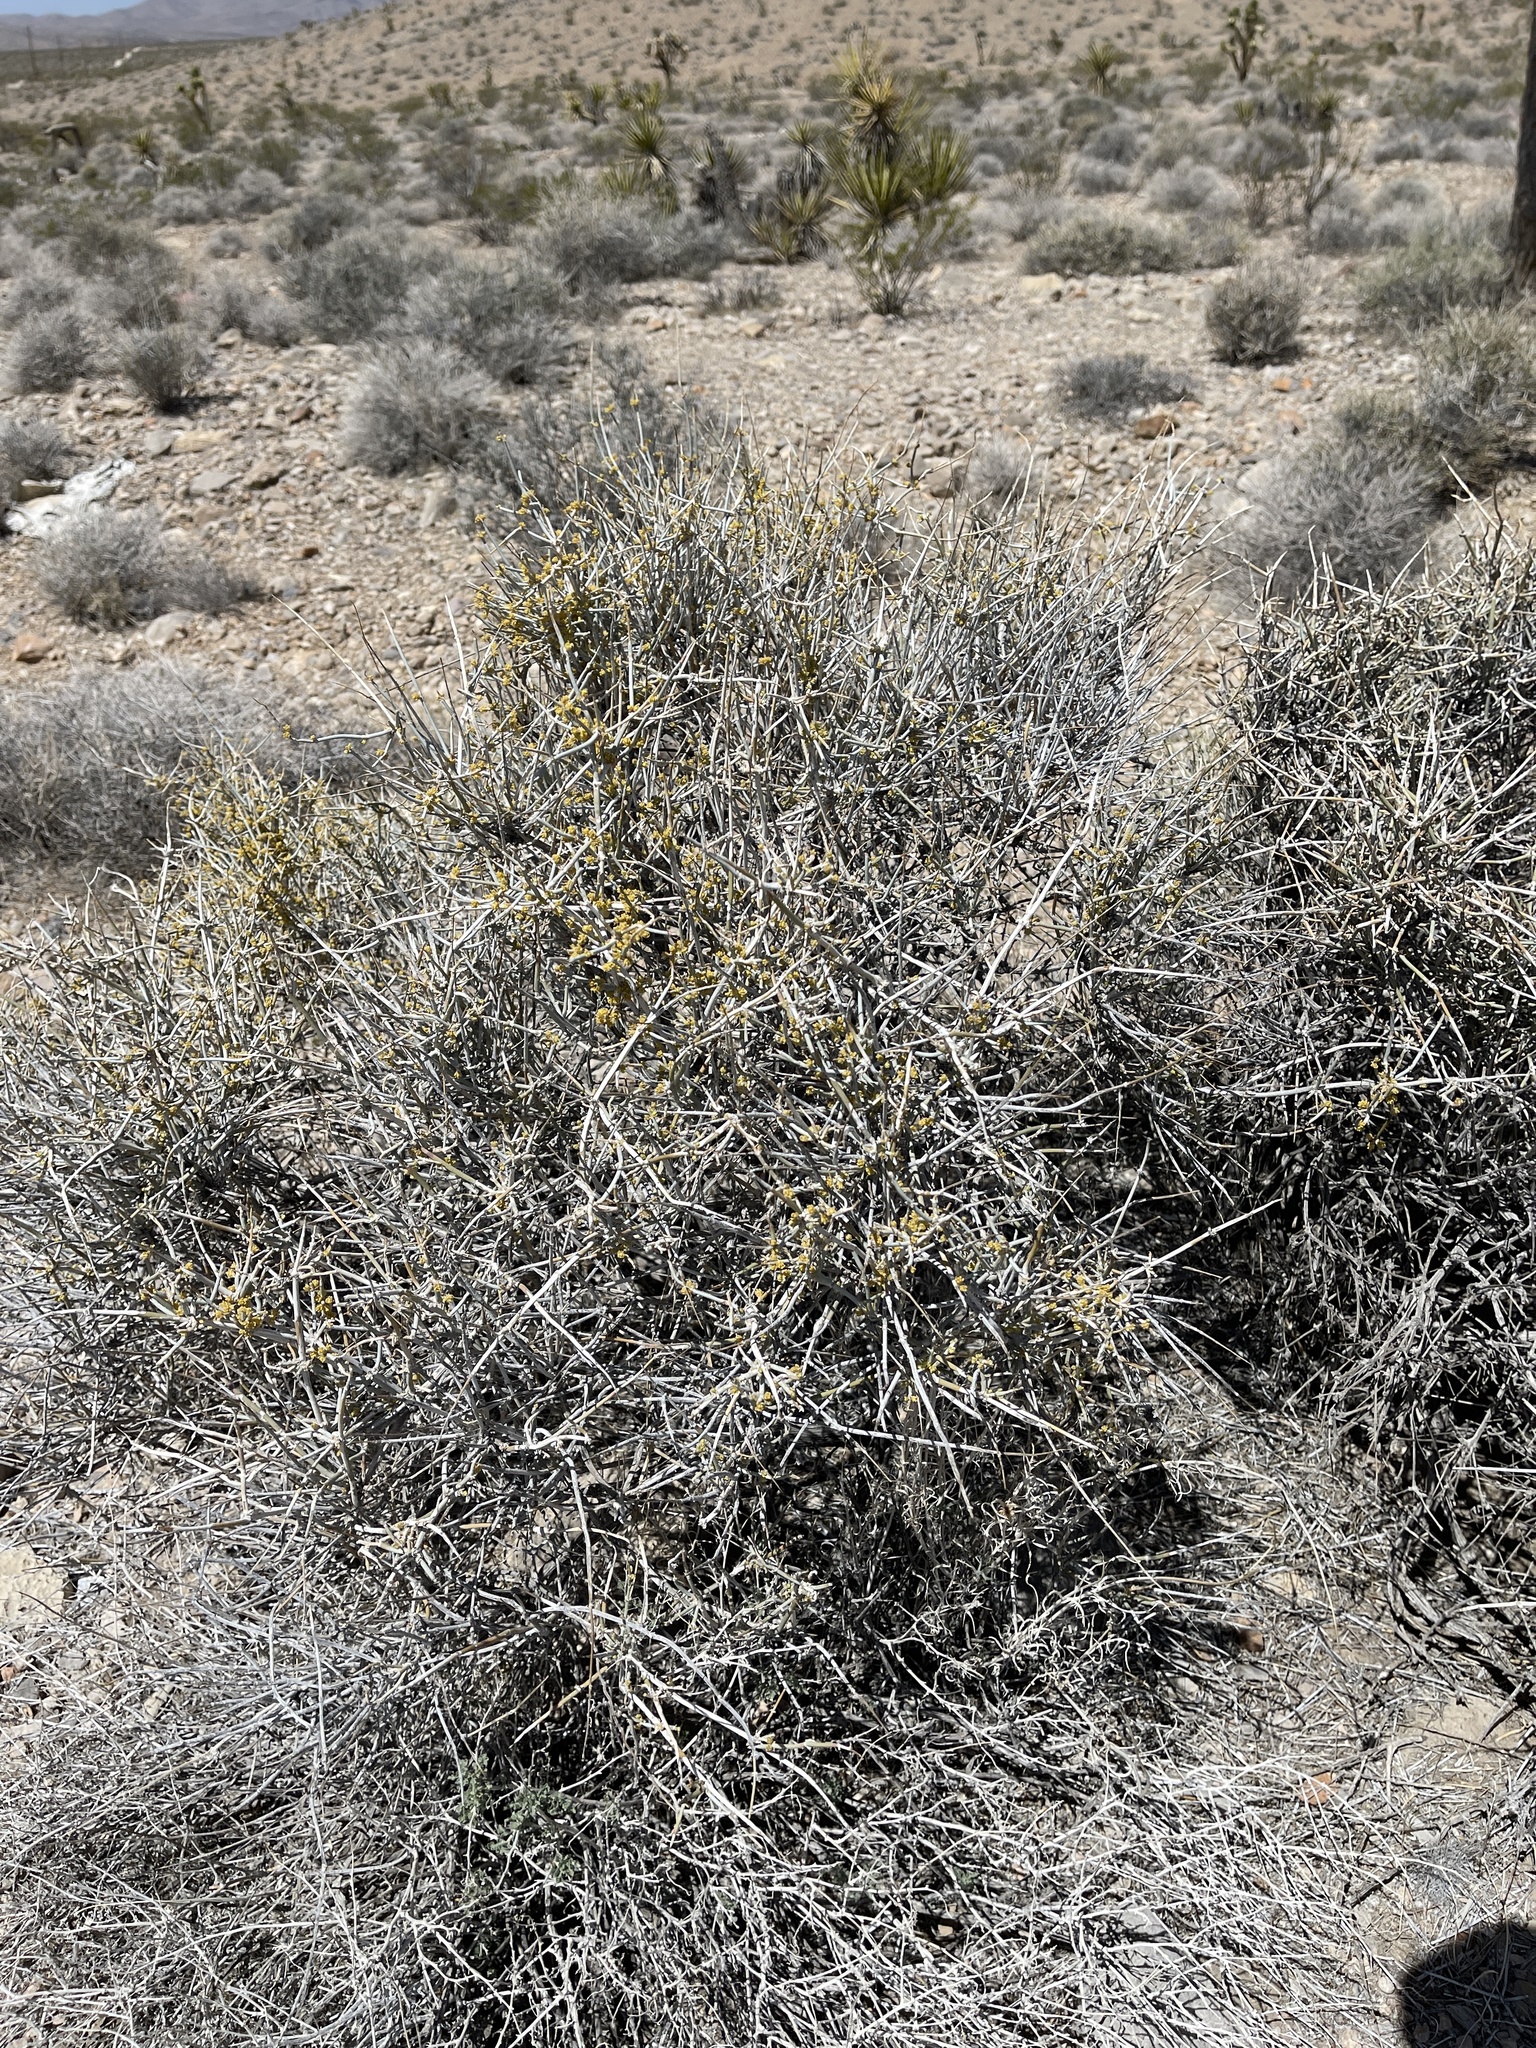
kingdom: Plantae
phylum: Tracheophyta
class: Gnetopsida
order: Ephedrales
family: Ephedraceae
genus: Ephedra
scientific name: Ephedra nevadensis
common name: Gray ephedra
